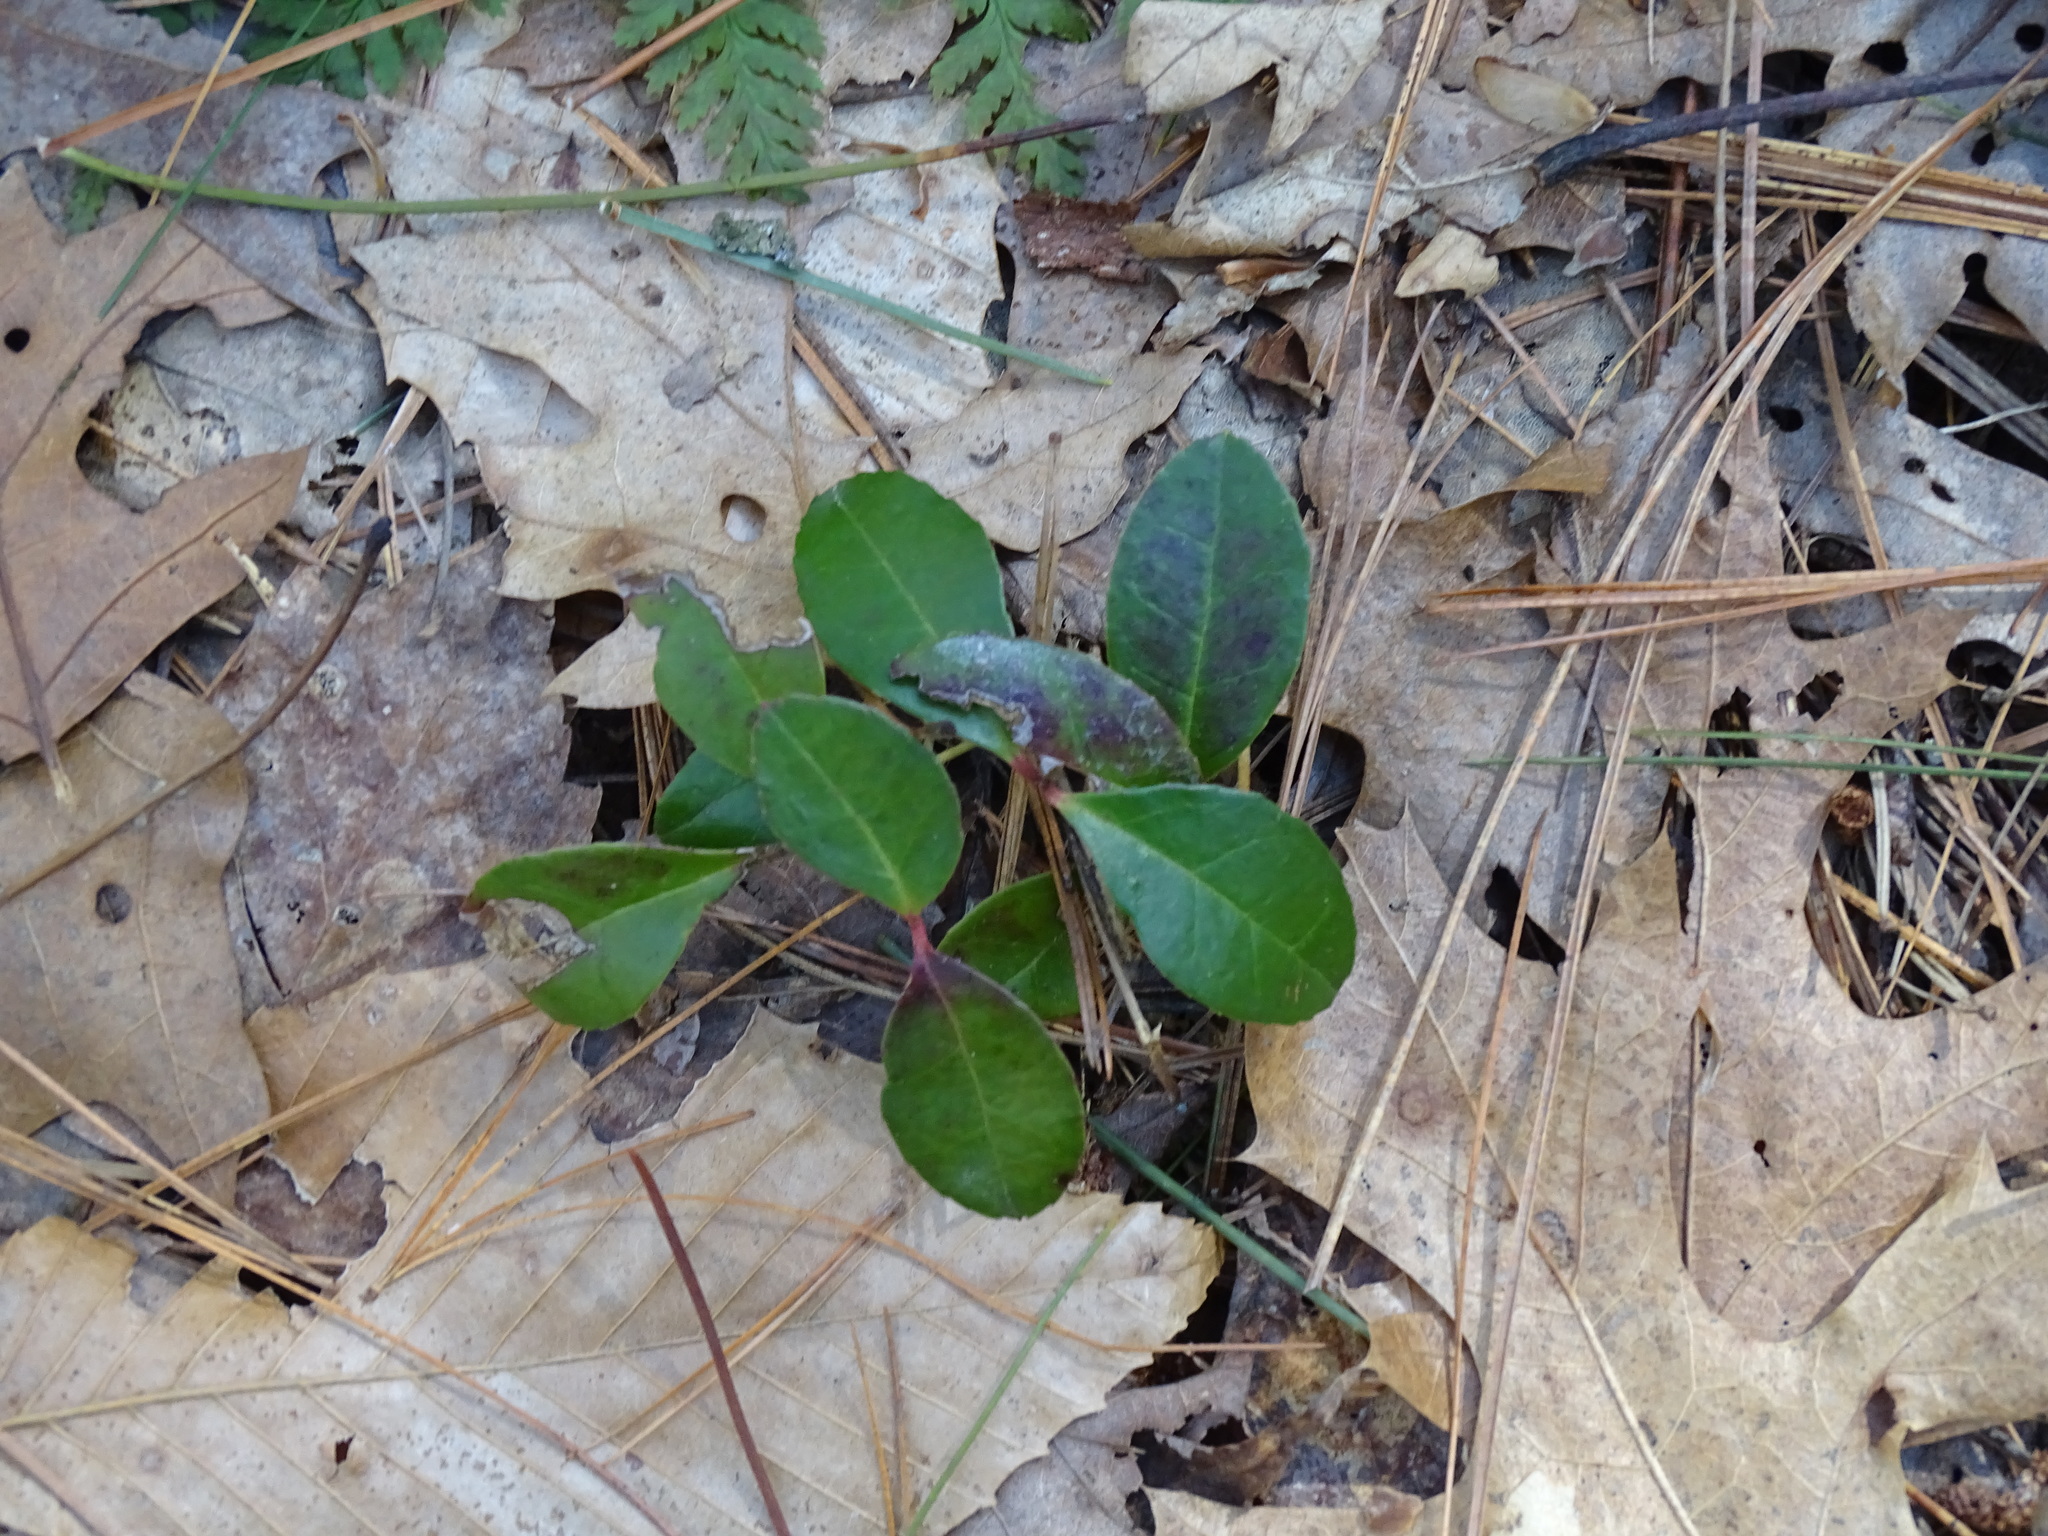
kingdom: Plantae
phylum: Tracheophyta
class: Magnoliopsida
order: Ericales
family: Ericaceae
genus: Gaultheria
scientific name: Gaultheria procumbens
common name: Checkerberry
